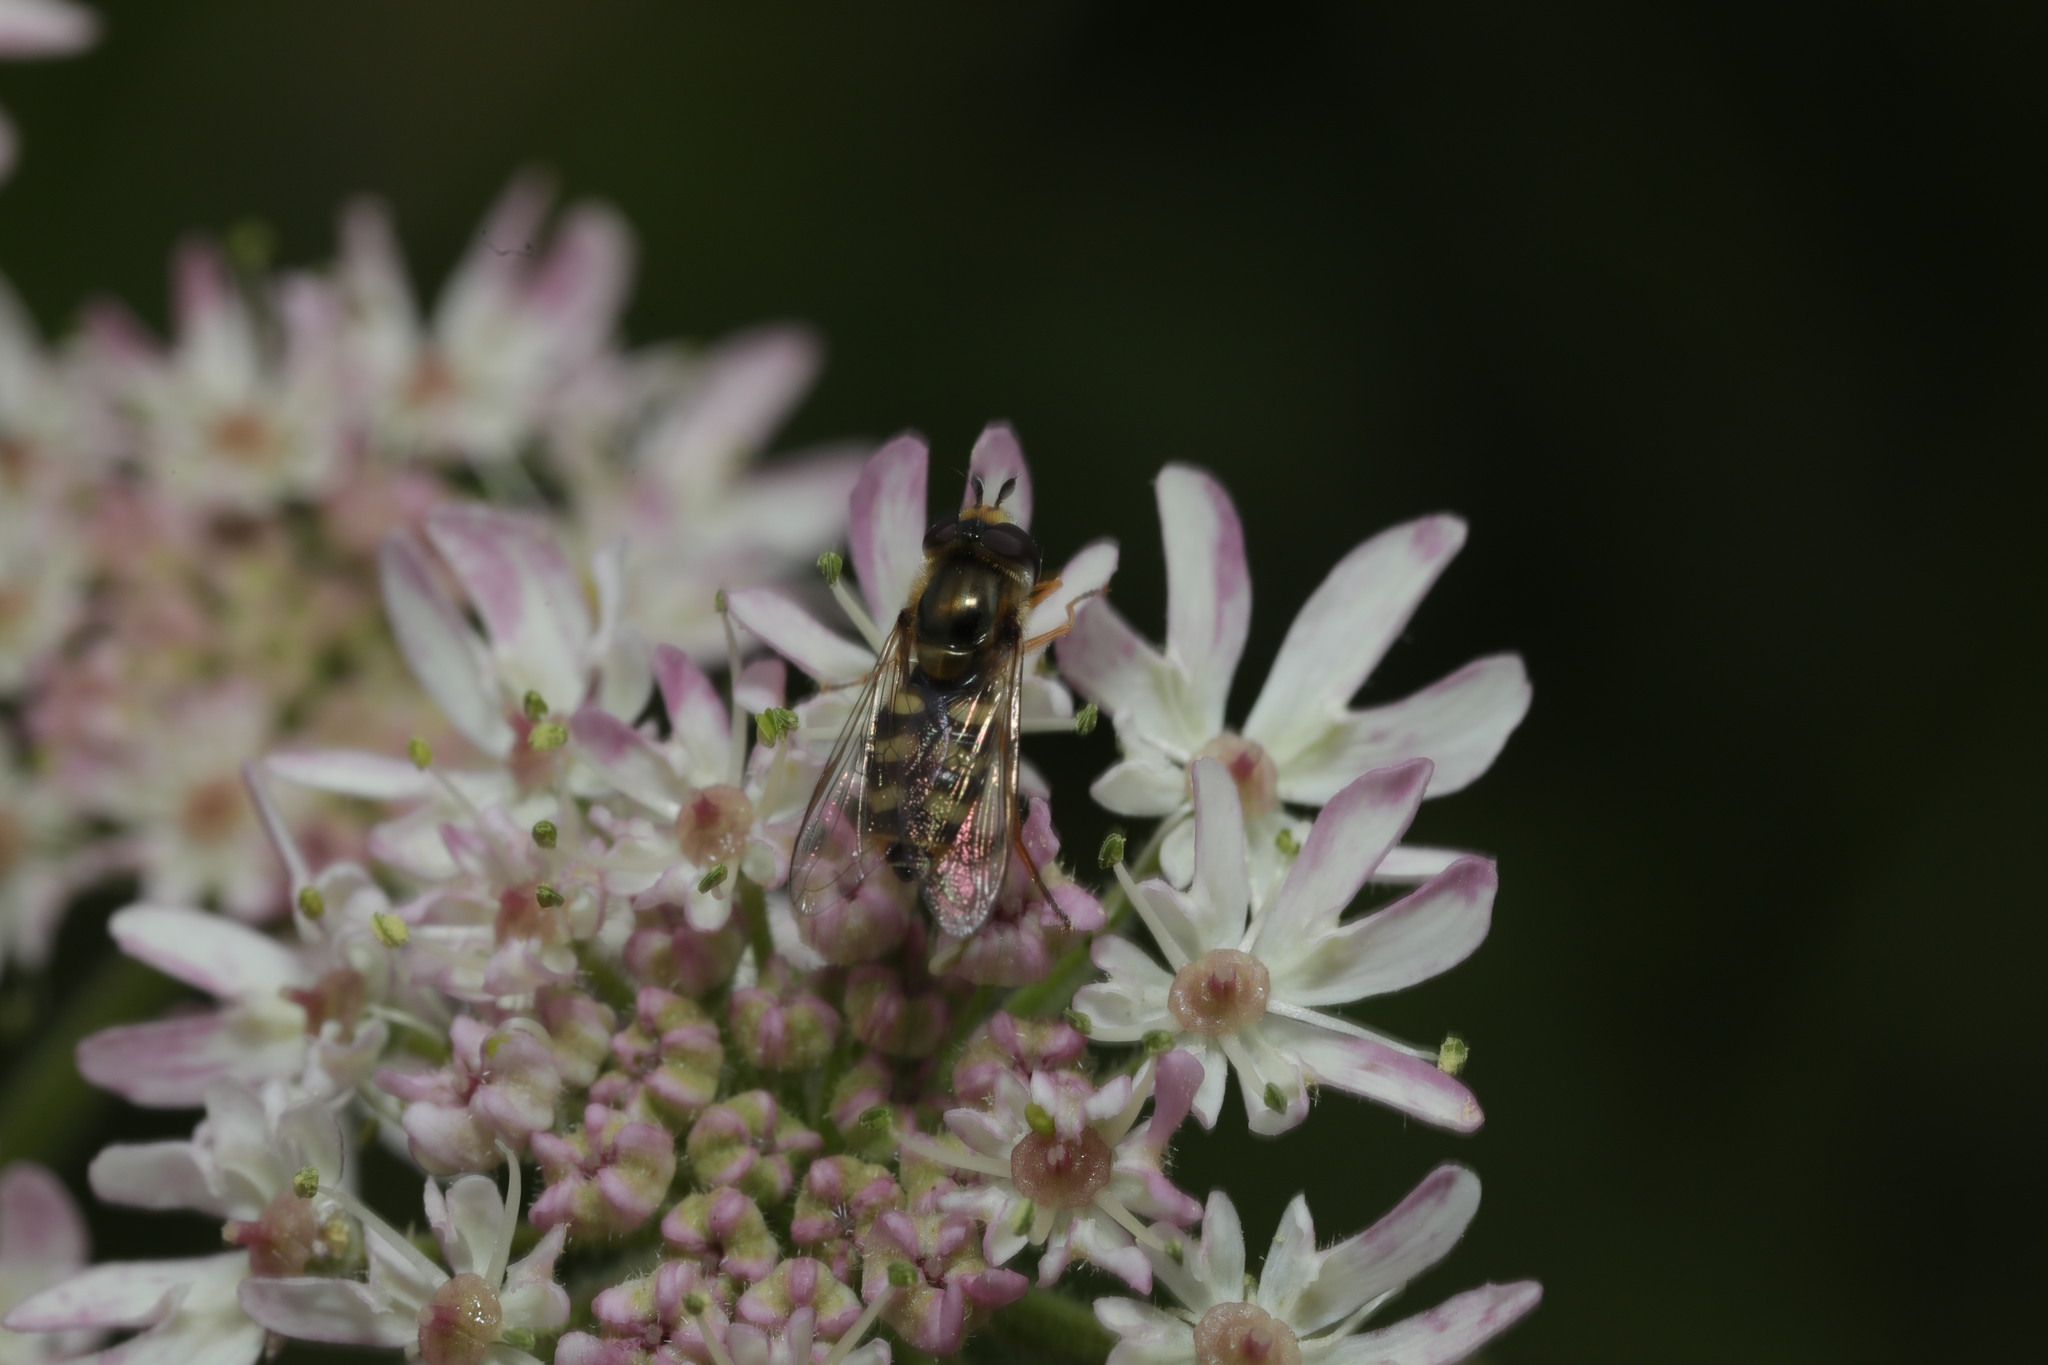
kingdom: Animalia
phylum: Arthropoda
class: Insecta
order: Diptera
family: Syrphidae
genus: Scaeva
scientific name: Scaeva pyrastri
